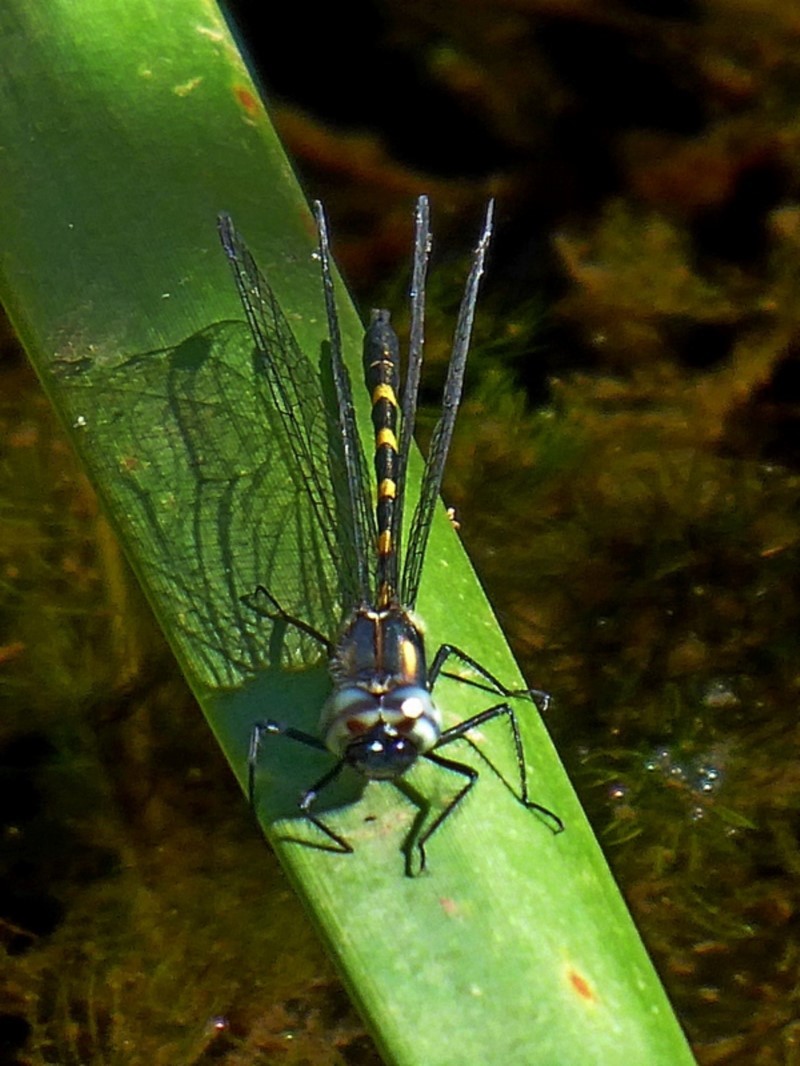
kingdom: Animalia
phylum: Arthropoda
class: Insecta
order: Odonata
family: Corduliidae
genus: Cordulephya
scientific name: Cordulephya pygmaea
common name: Common shutwing
